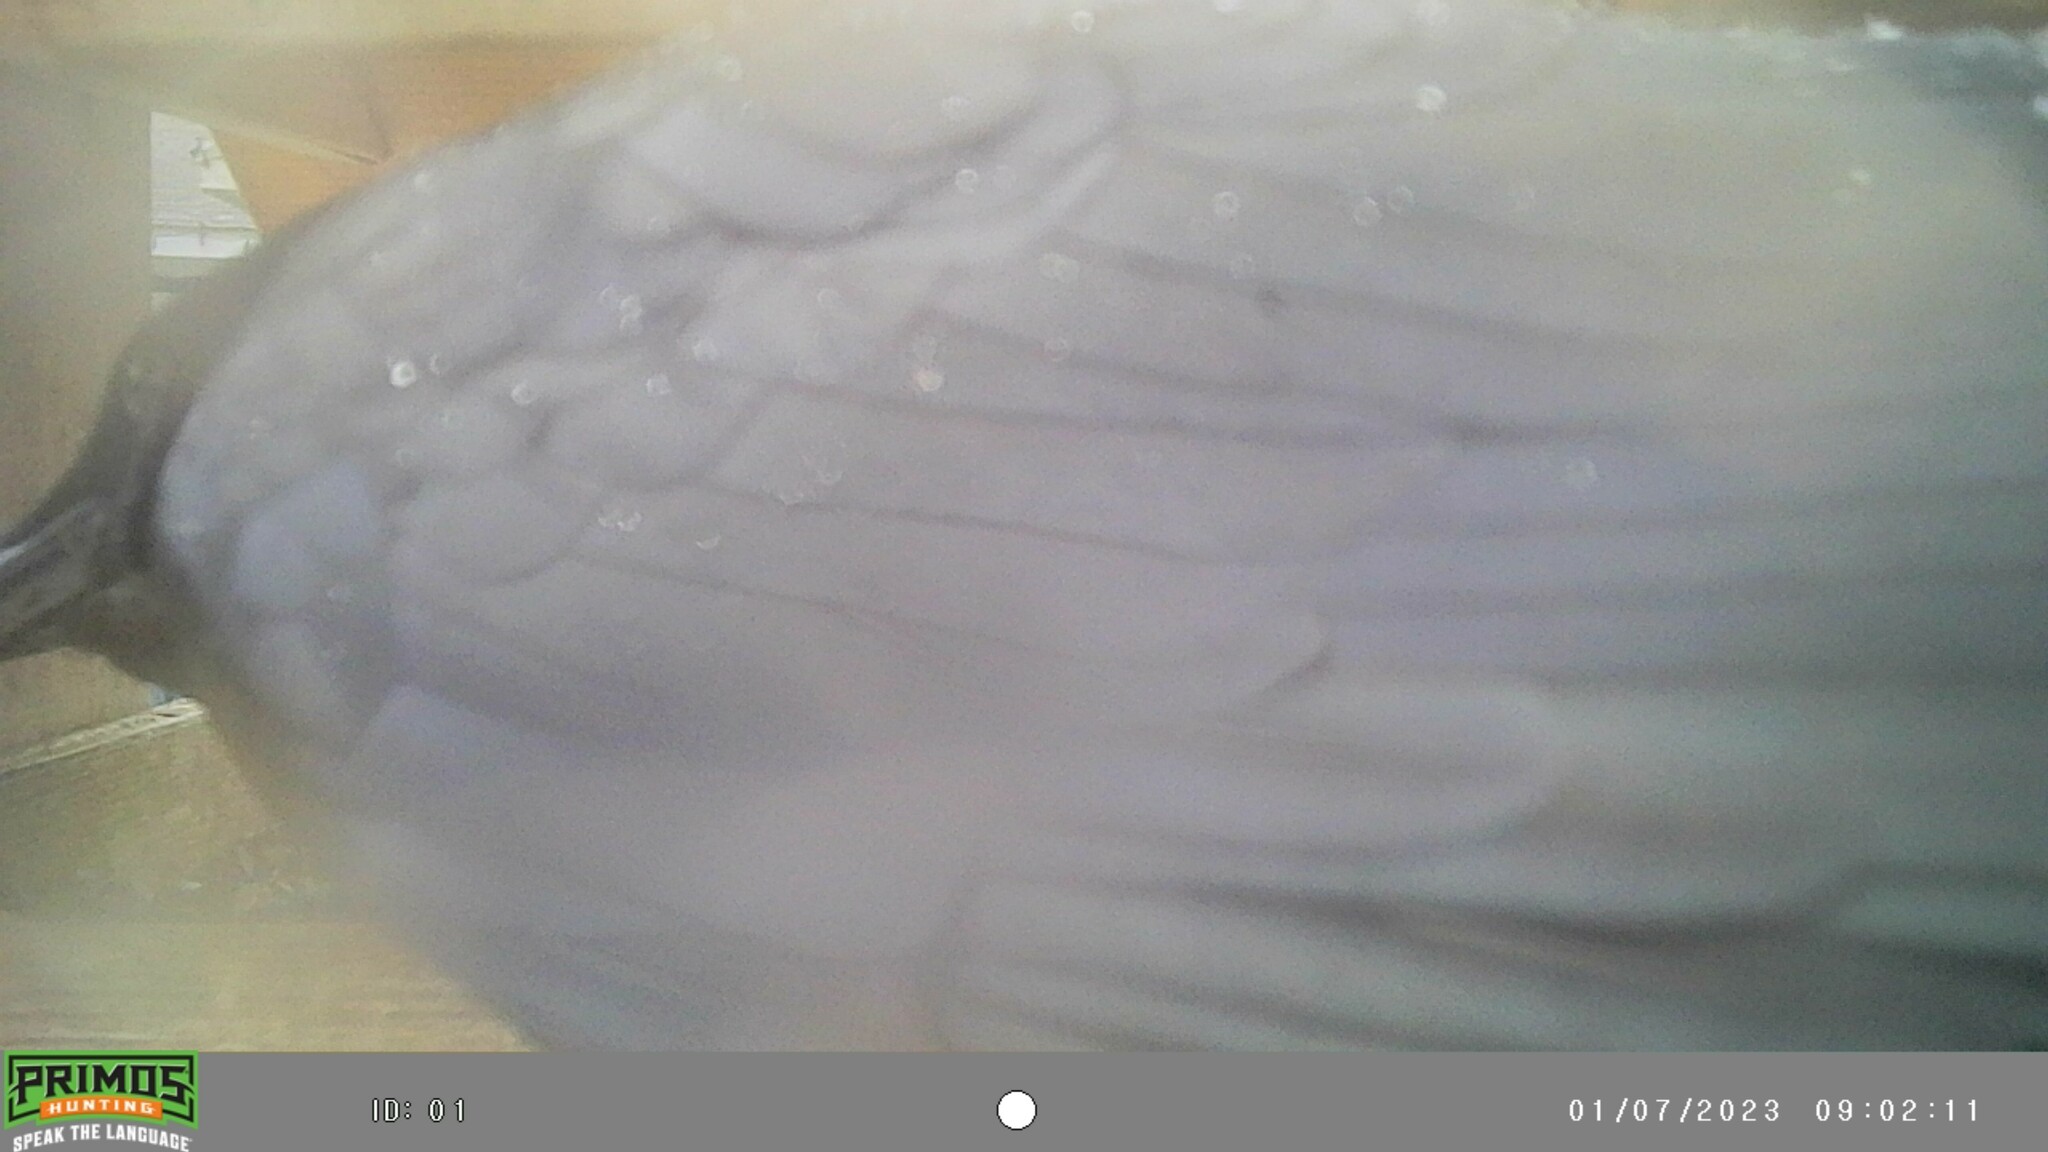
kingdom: Animalia
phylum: Chordata
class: Aves
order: Passeriformes
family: Corvidae
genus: Corvus
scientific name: Corvus brachyrhynchos
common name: American crow
